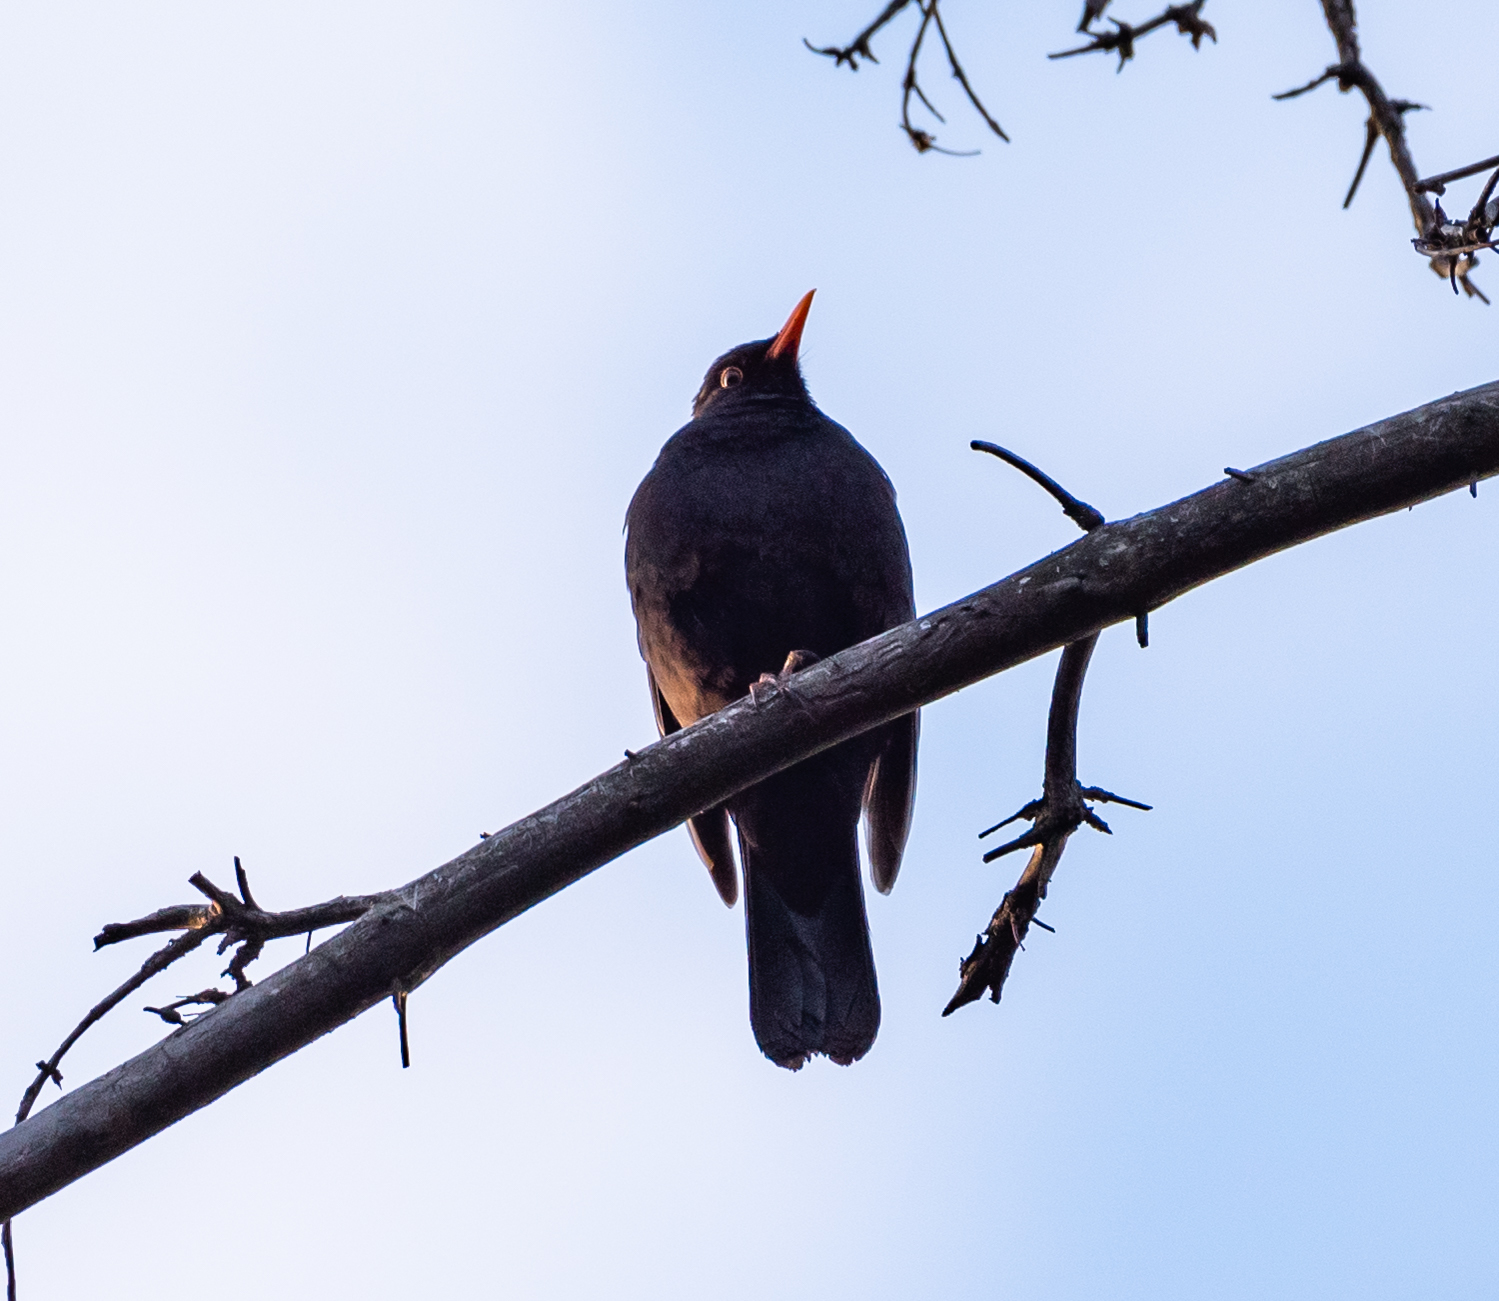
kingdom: Animalia
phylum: Chordata
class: Aves
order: Passeriformes
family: Turdidae
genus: Turdus
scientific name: Turdus merula
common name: Common blackbird
